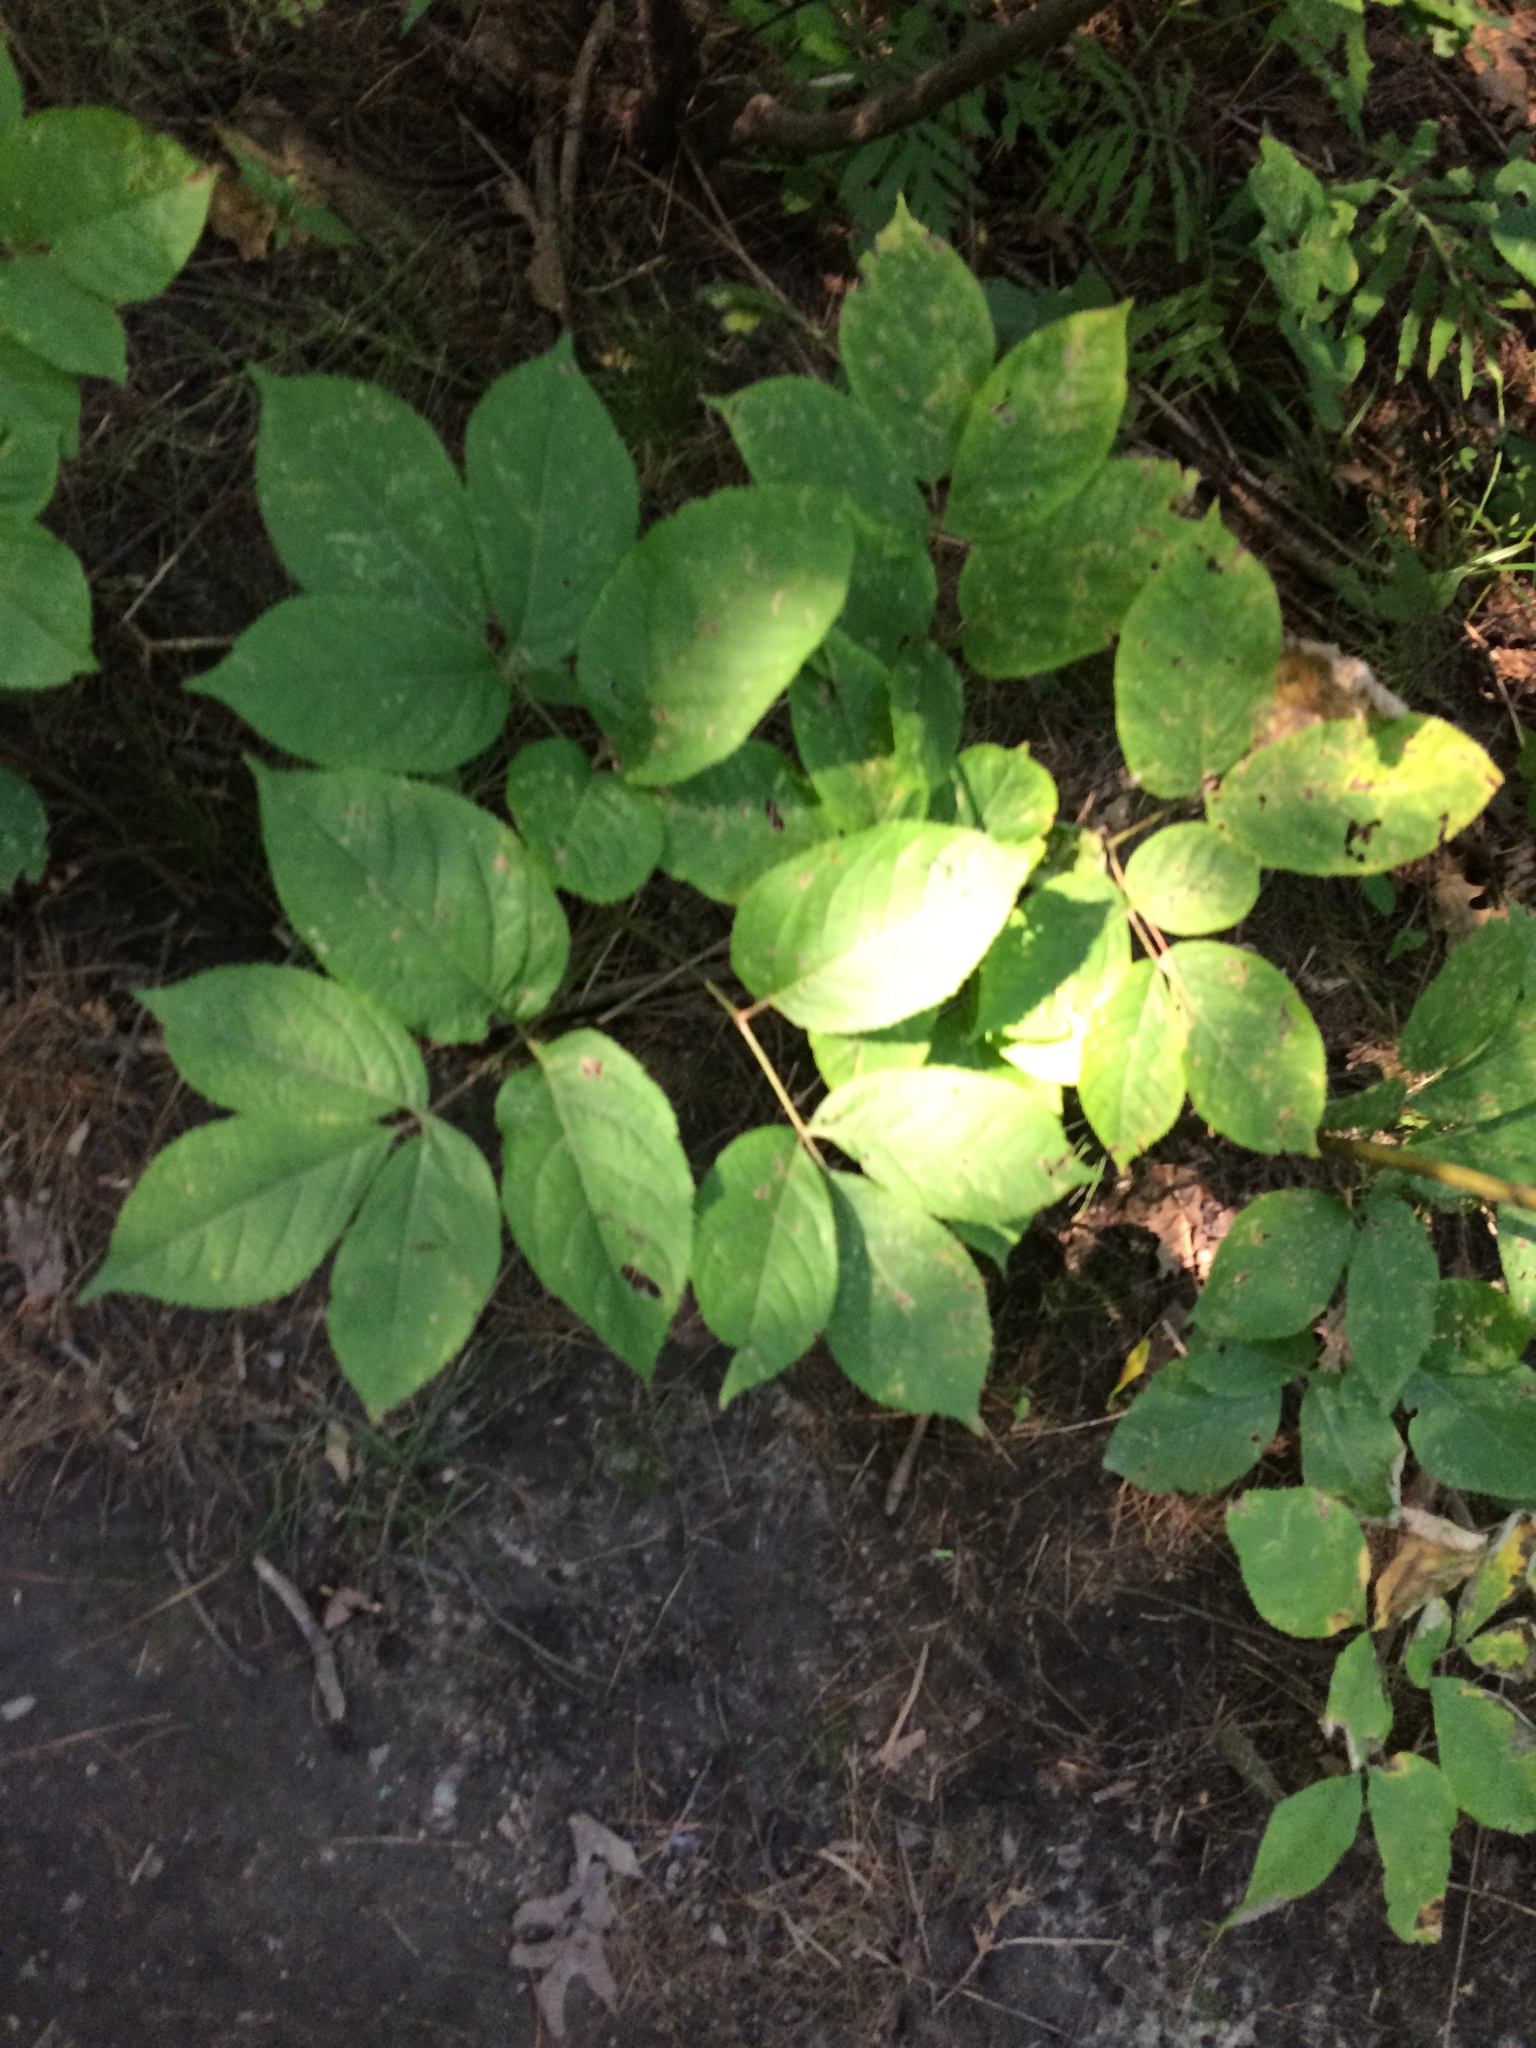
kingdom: Plantae
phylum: Tracheophyta
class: Magnoliopsida
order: Apiales
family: Araliaceae
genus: Aralia
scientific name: Aralia nudicaulis
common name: Wild sarsaparilla
